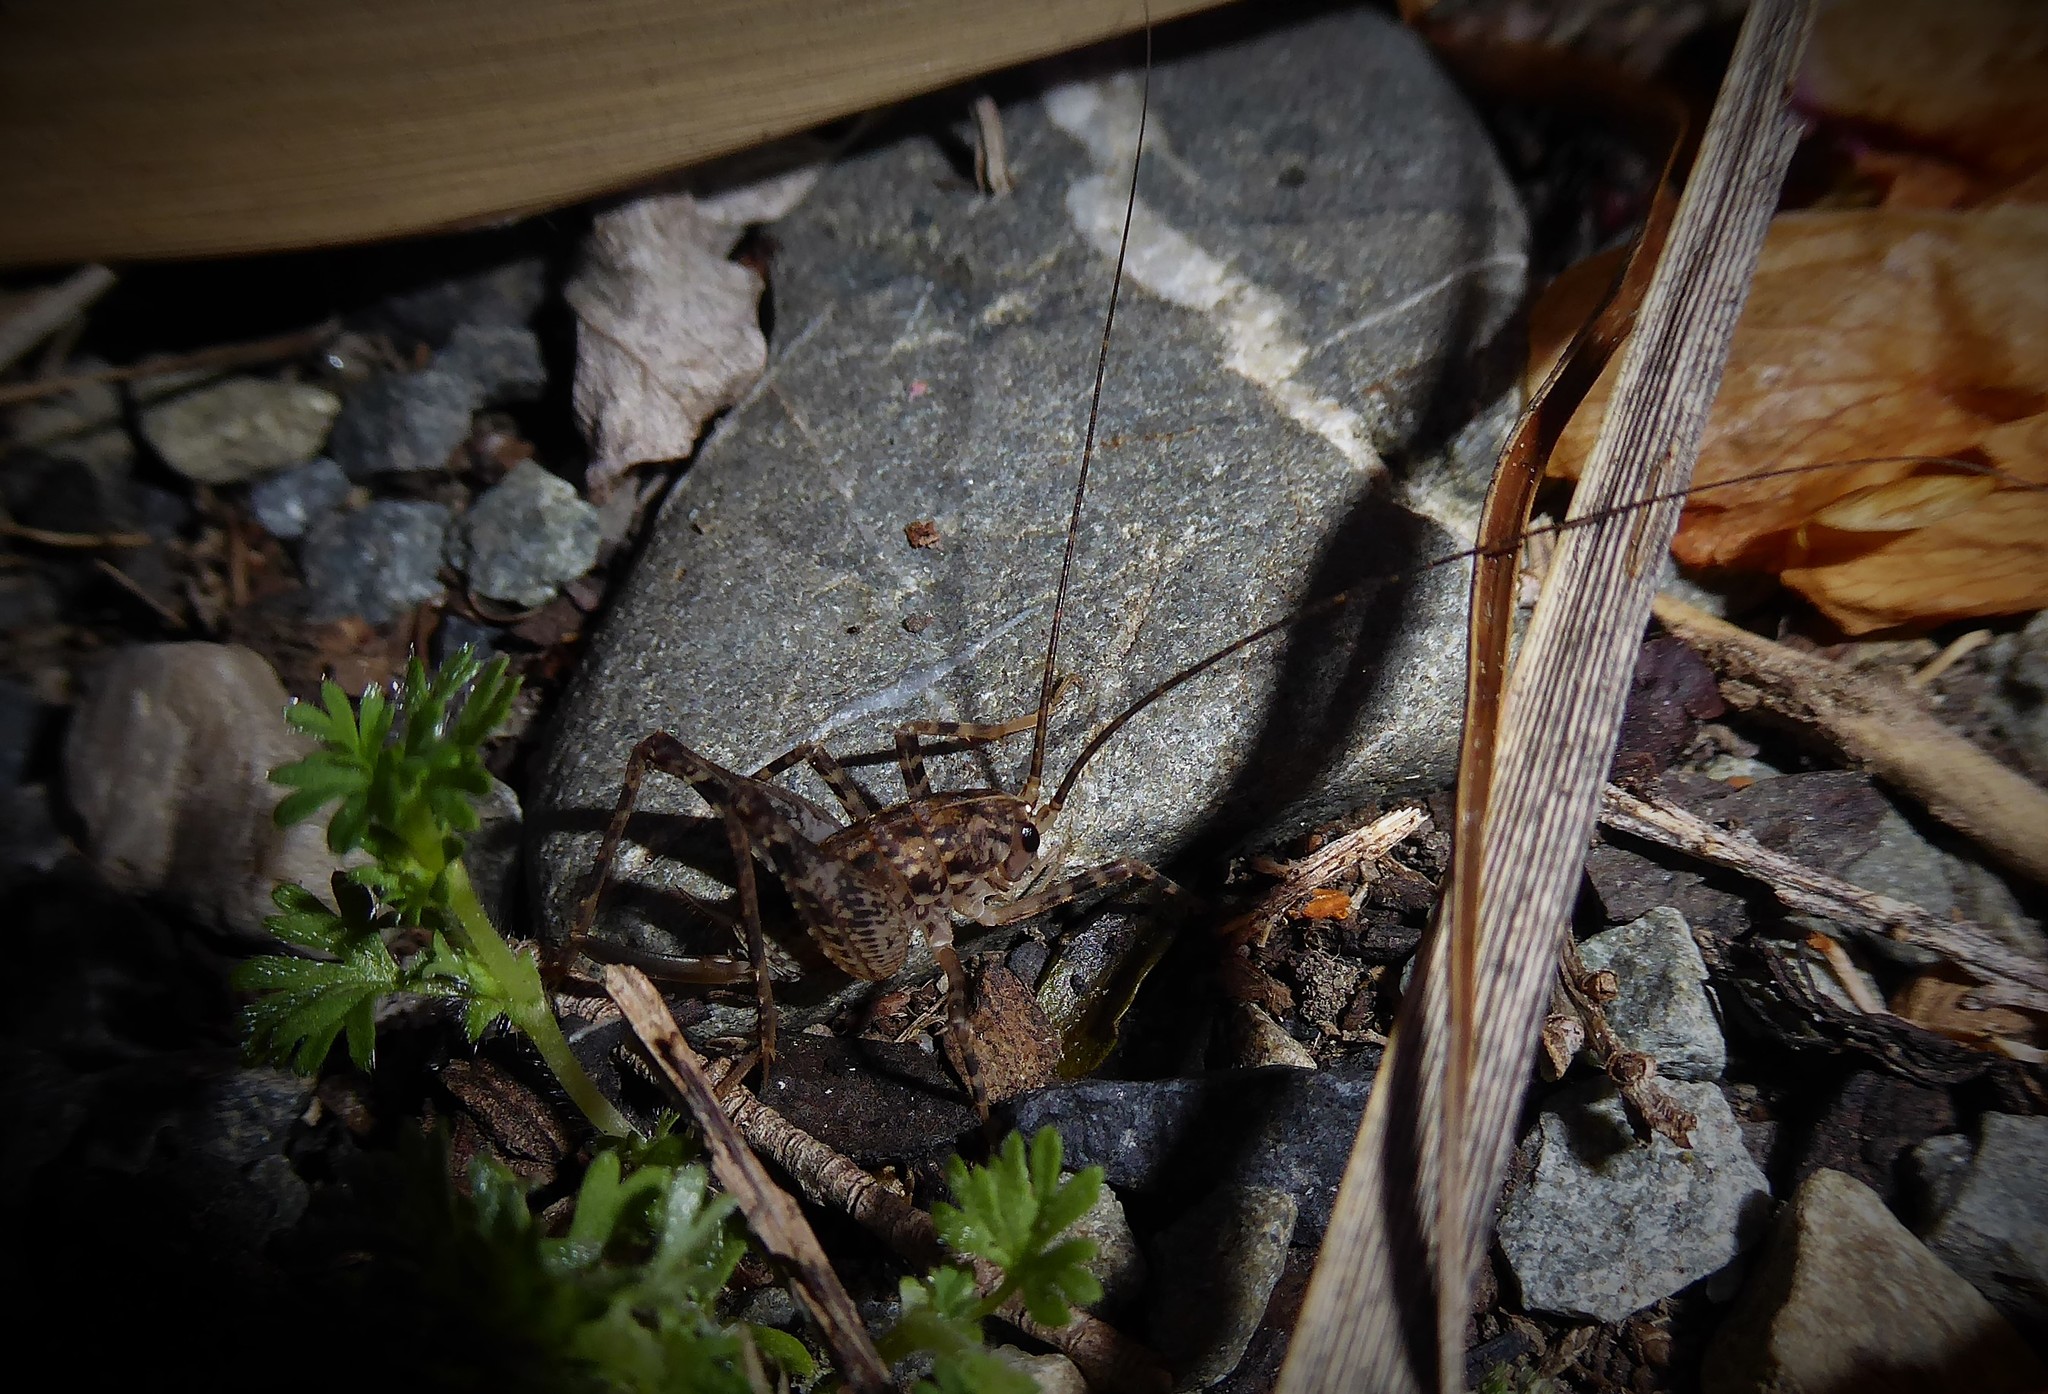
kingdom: Animalia
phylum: Arthropoda
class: Insecta
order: Orthoptera
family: Rhaphidophoridae
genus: Pleioplectron
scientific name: Pleioplectron simplex
